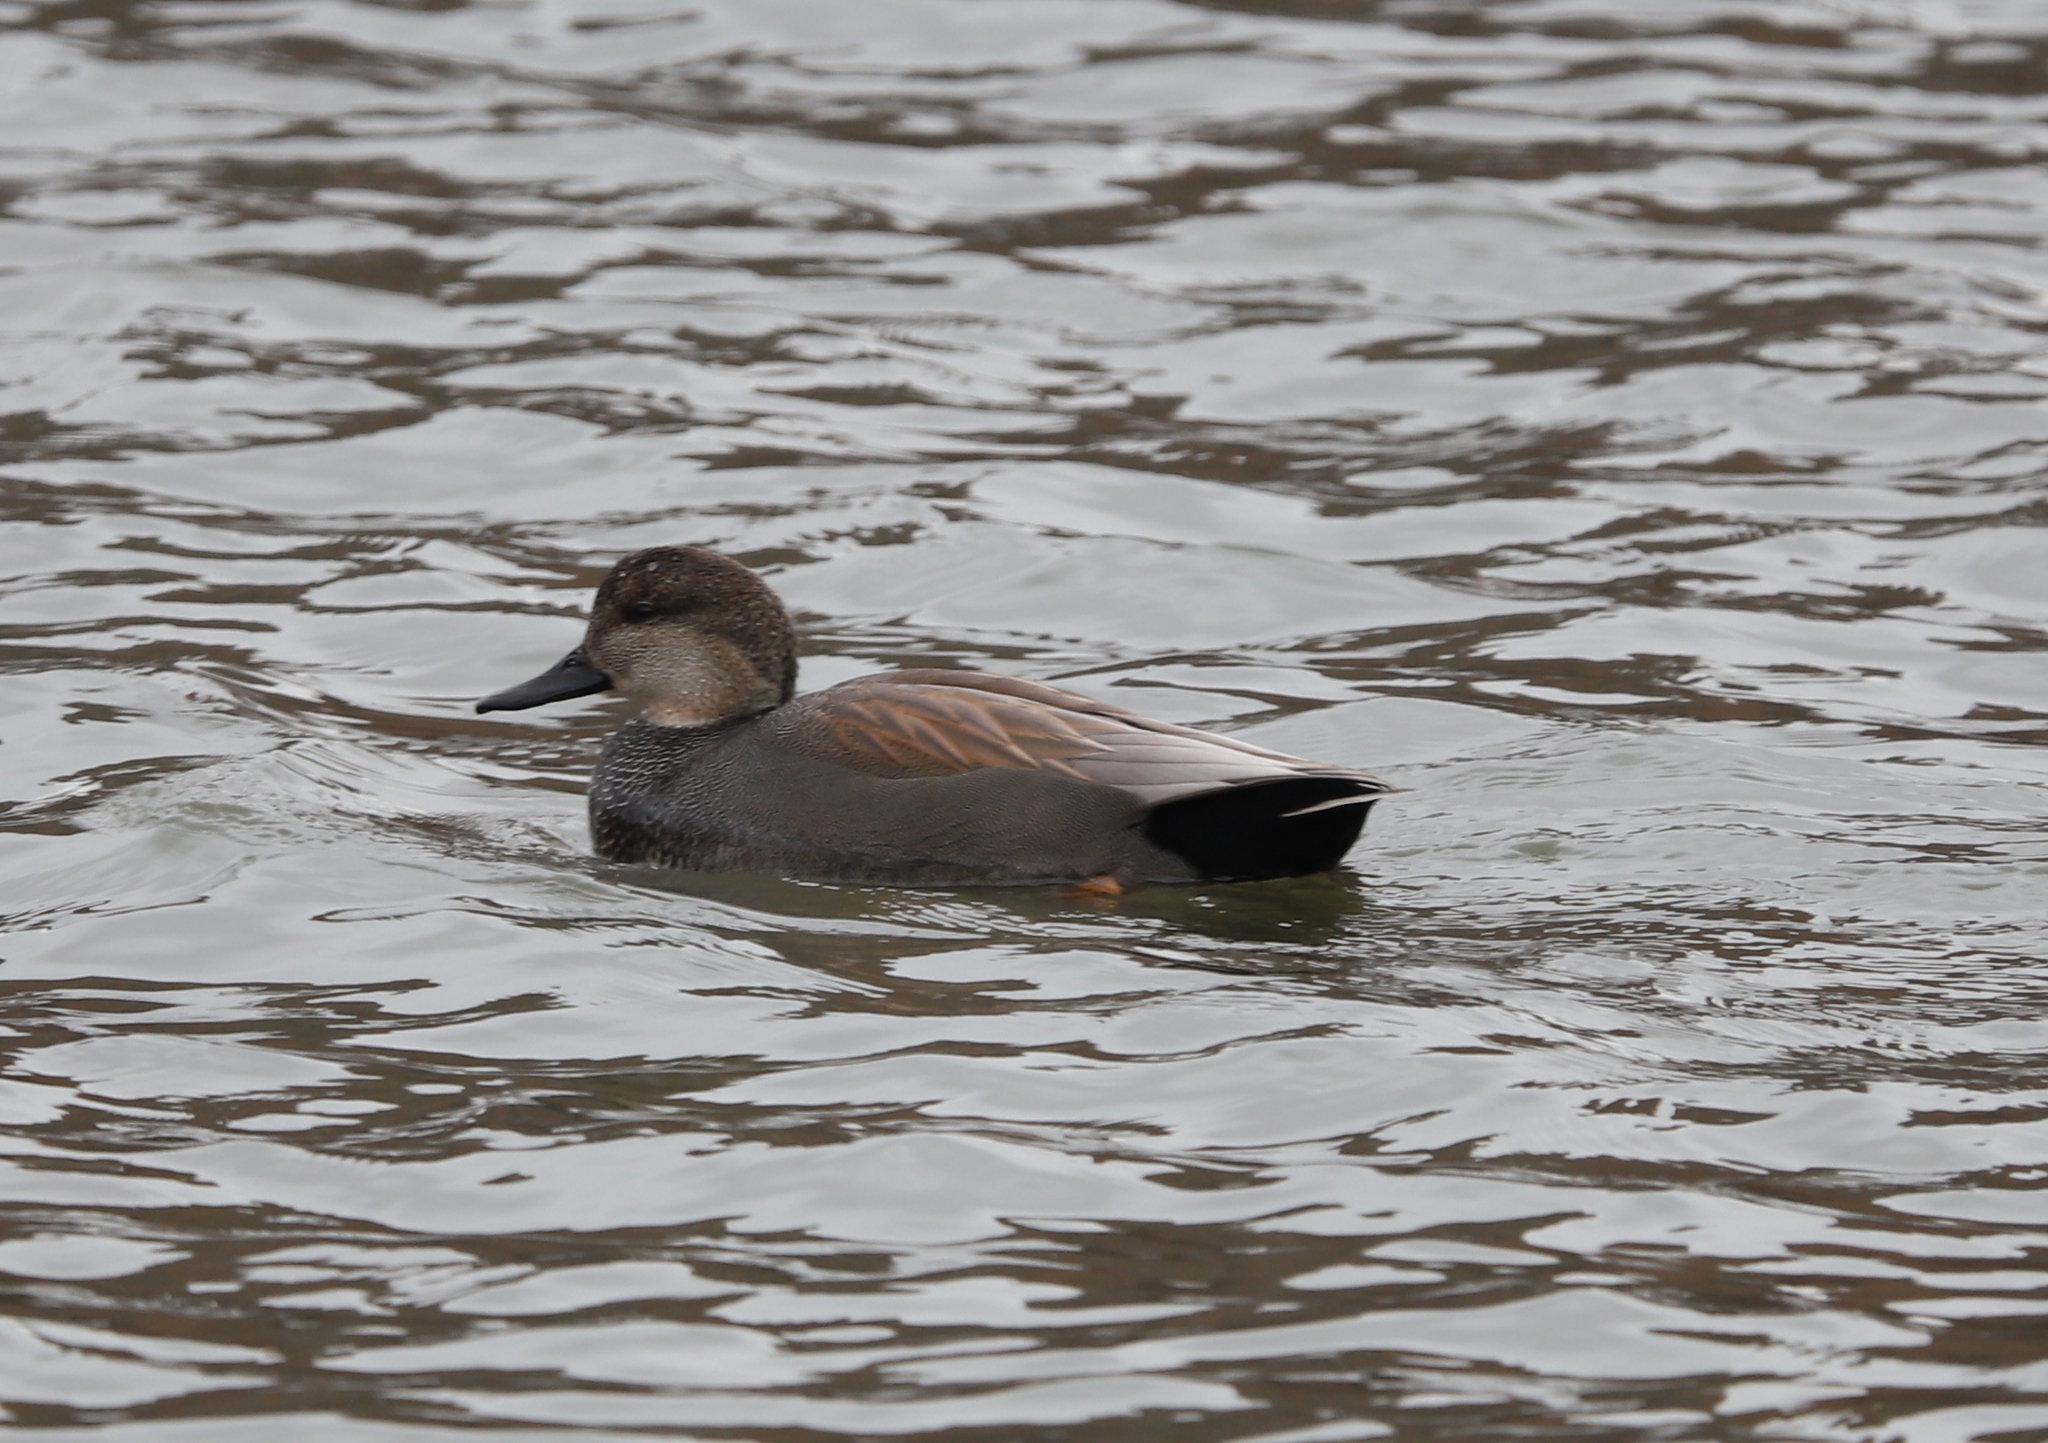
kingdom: Animalia
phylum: Chordata
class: Aves
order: Anseriformes
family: Anatidae
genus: Mareca
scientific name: Mareca strepera
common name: Gadwall
